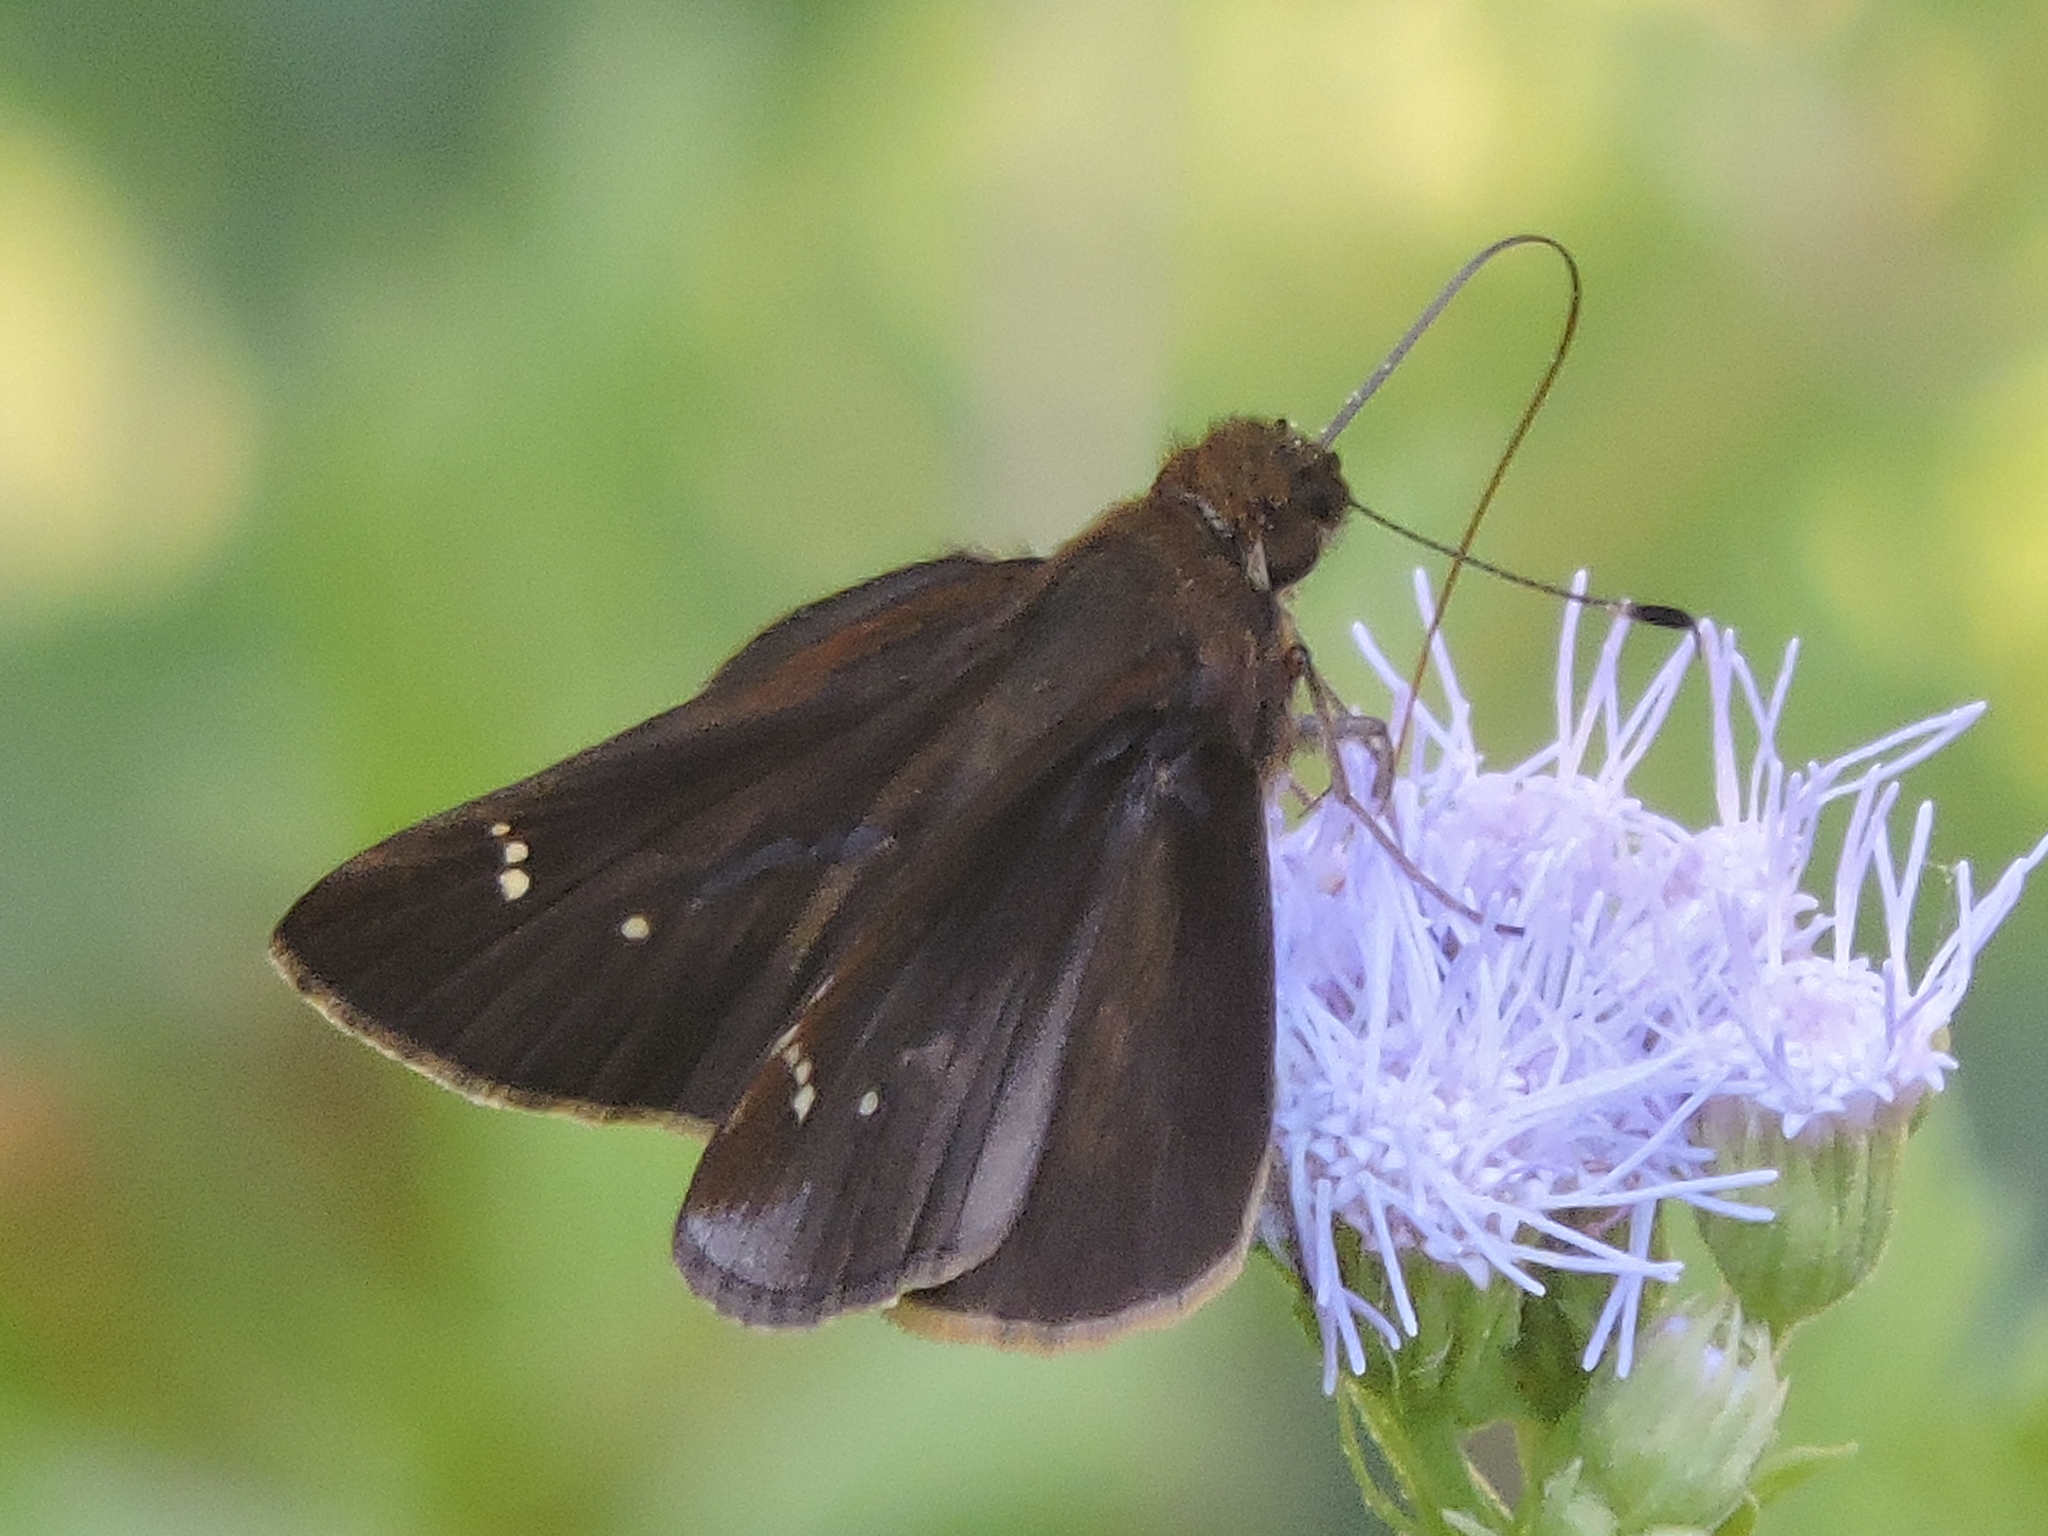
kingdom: Animalia
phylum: Arthropoda
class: Insecta
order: Lepidoptera
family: Hesperiidae
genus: Lerema
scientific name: Lerema accius
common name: Clouded skipper
